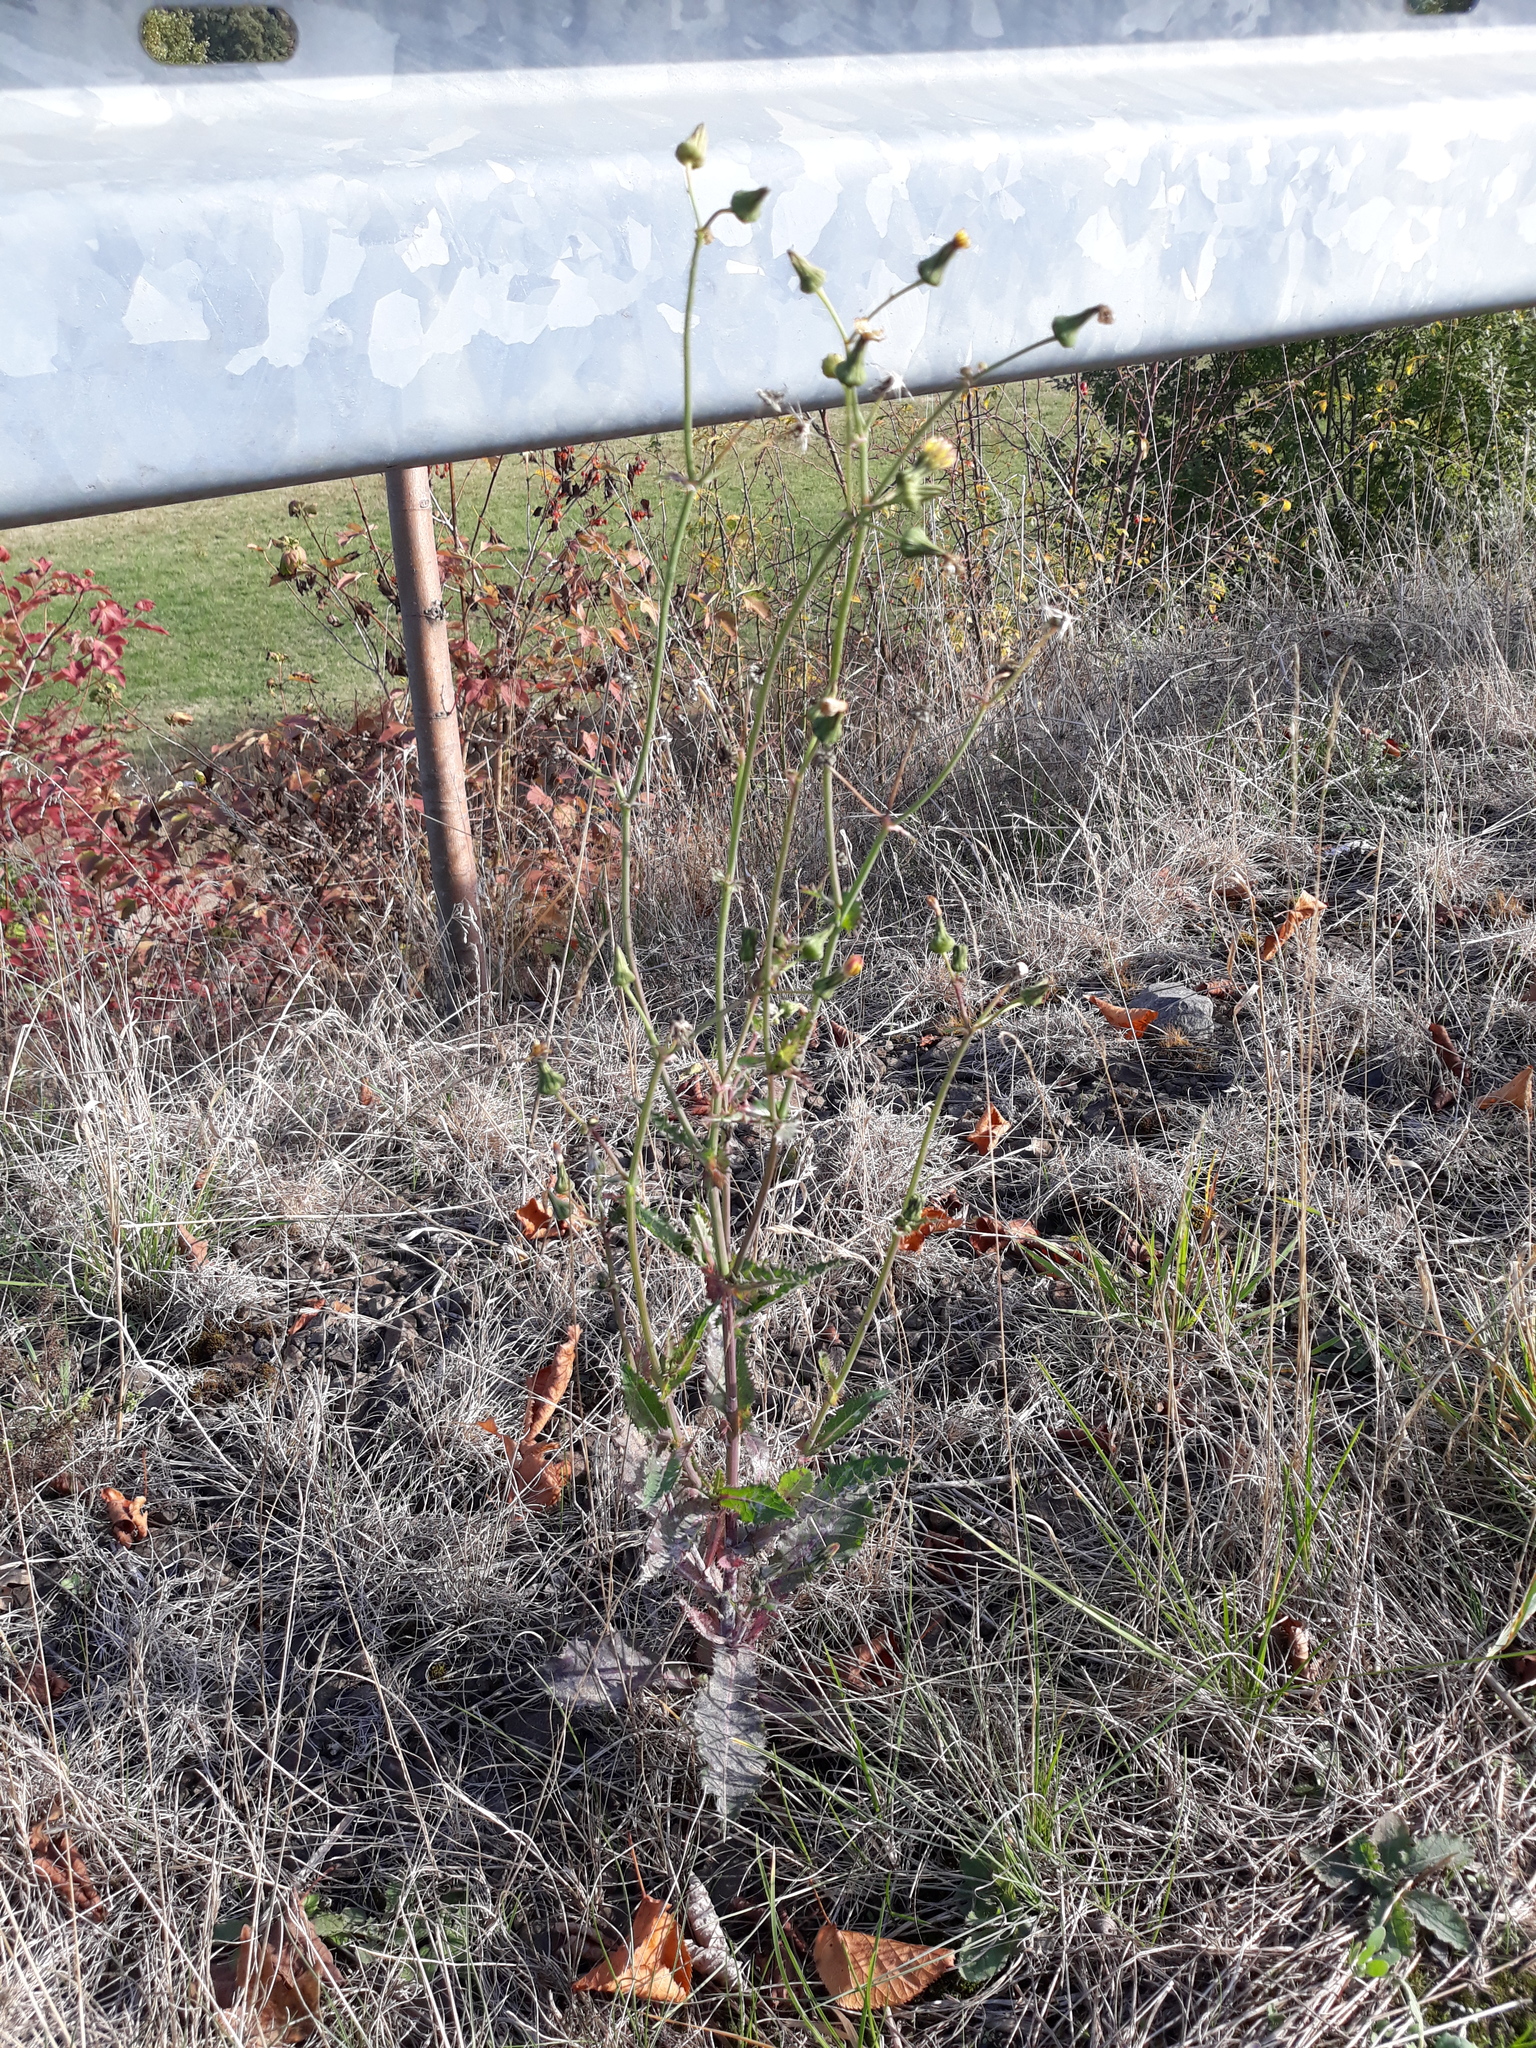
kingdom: Plantae
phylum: Tracheophyta
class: Magnoliopsida
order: Asterales
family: Asteraceae
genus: Sonchus
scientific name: Sonchus oleraceus
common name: Common sowthistle
